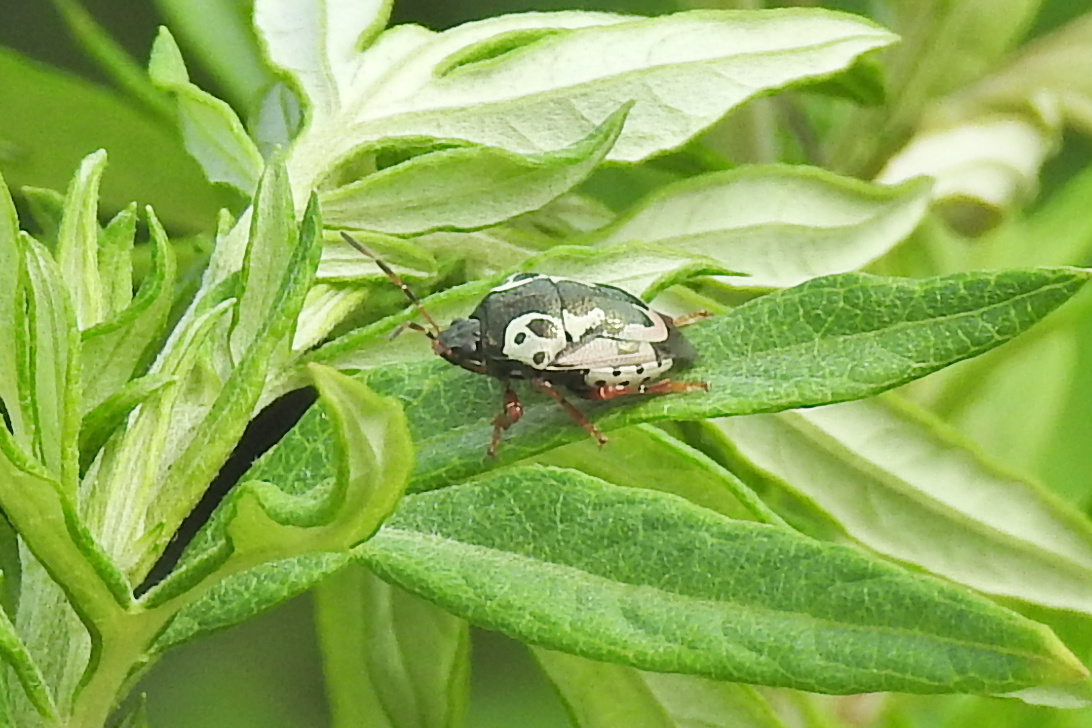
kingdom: Animalia
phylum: Arthropoda
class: Insecta
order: Hemiptera
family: Pentatomidae
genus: Stiretrus
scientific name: Stiretrus anchorago
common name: Anchor stink bug
